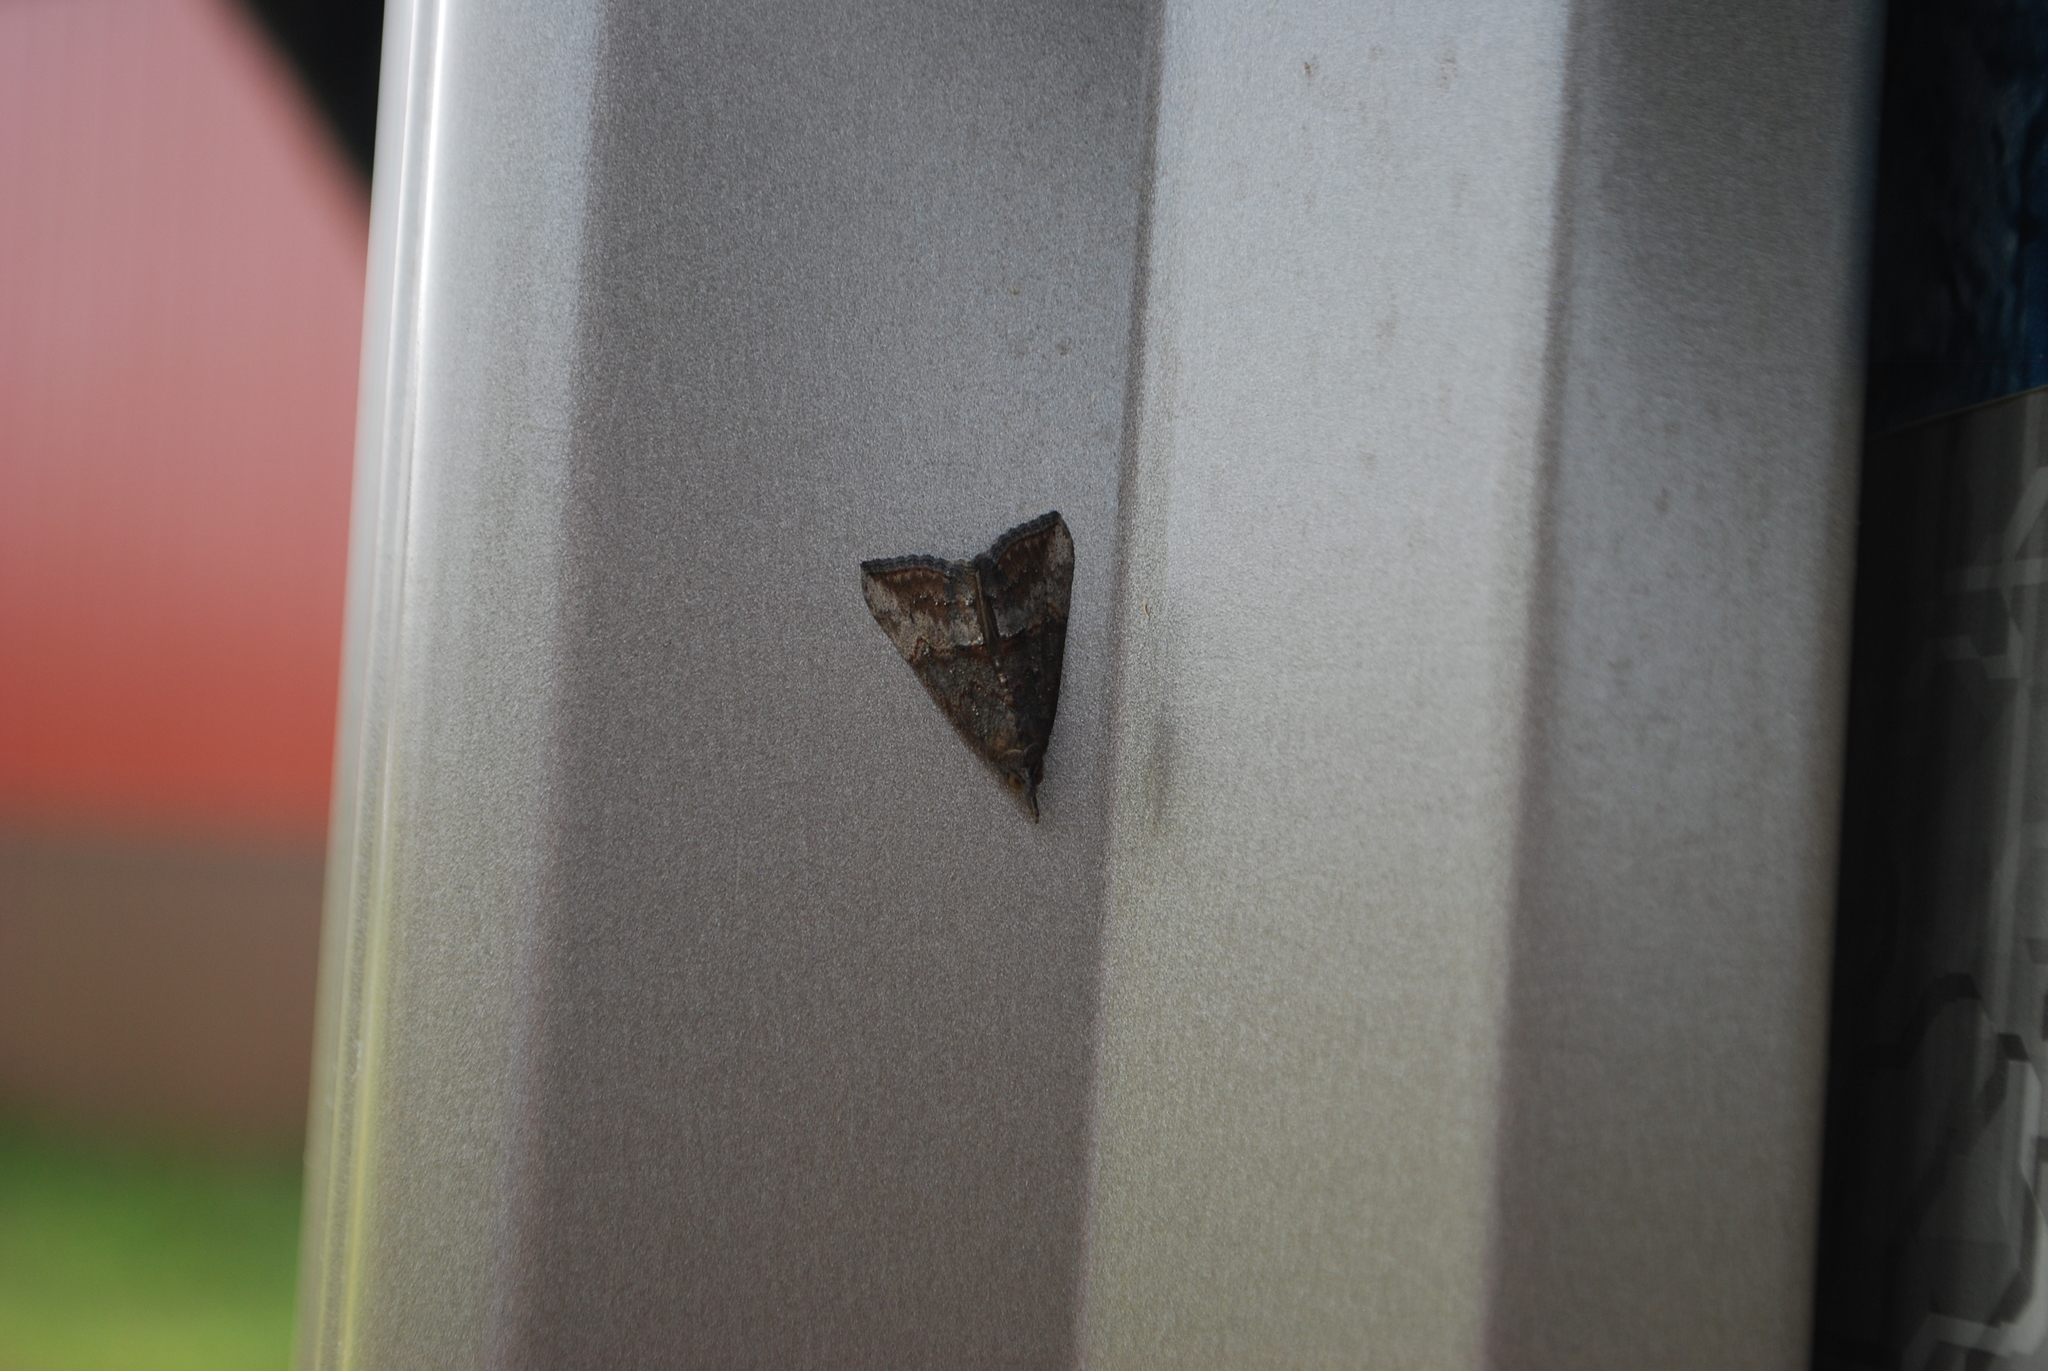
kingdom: Animalia
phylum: Arthropoda
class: Insecta
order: Lepidoptera
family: Erebidae
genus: Hypena
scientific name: Hypena scabra
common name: Green cloverworm
